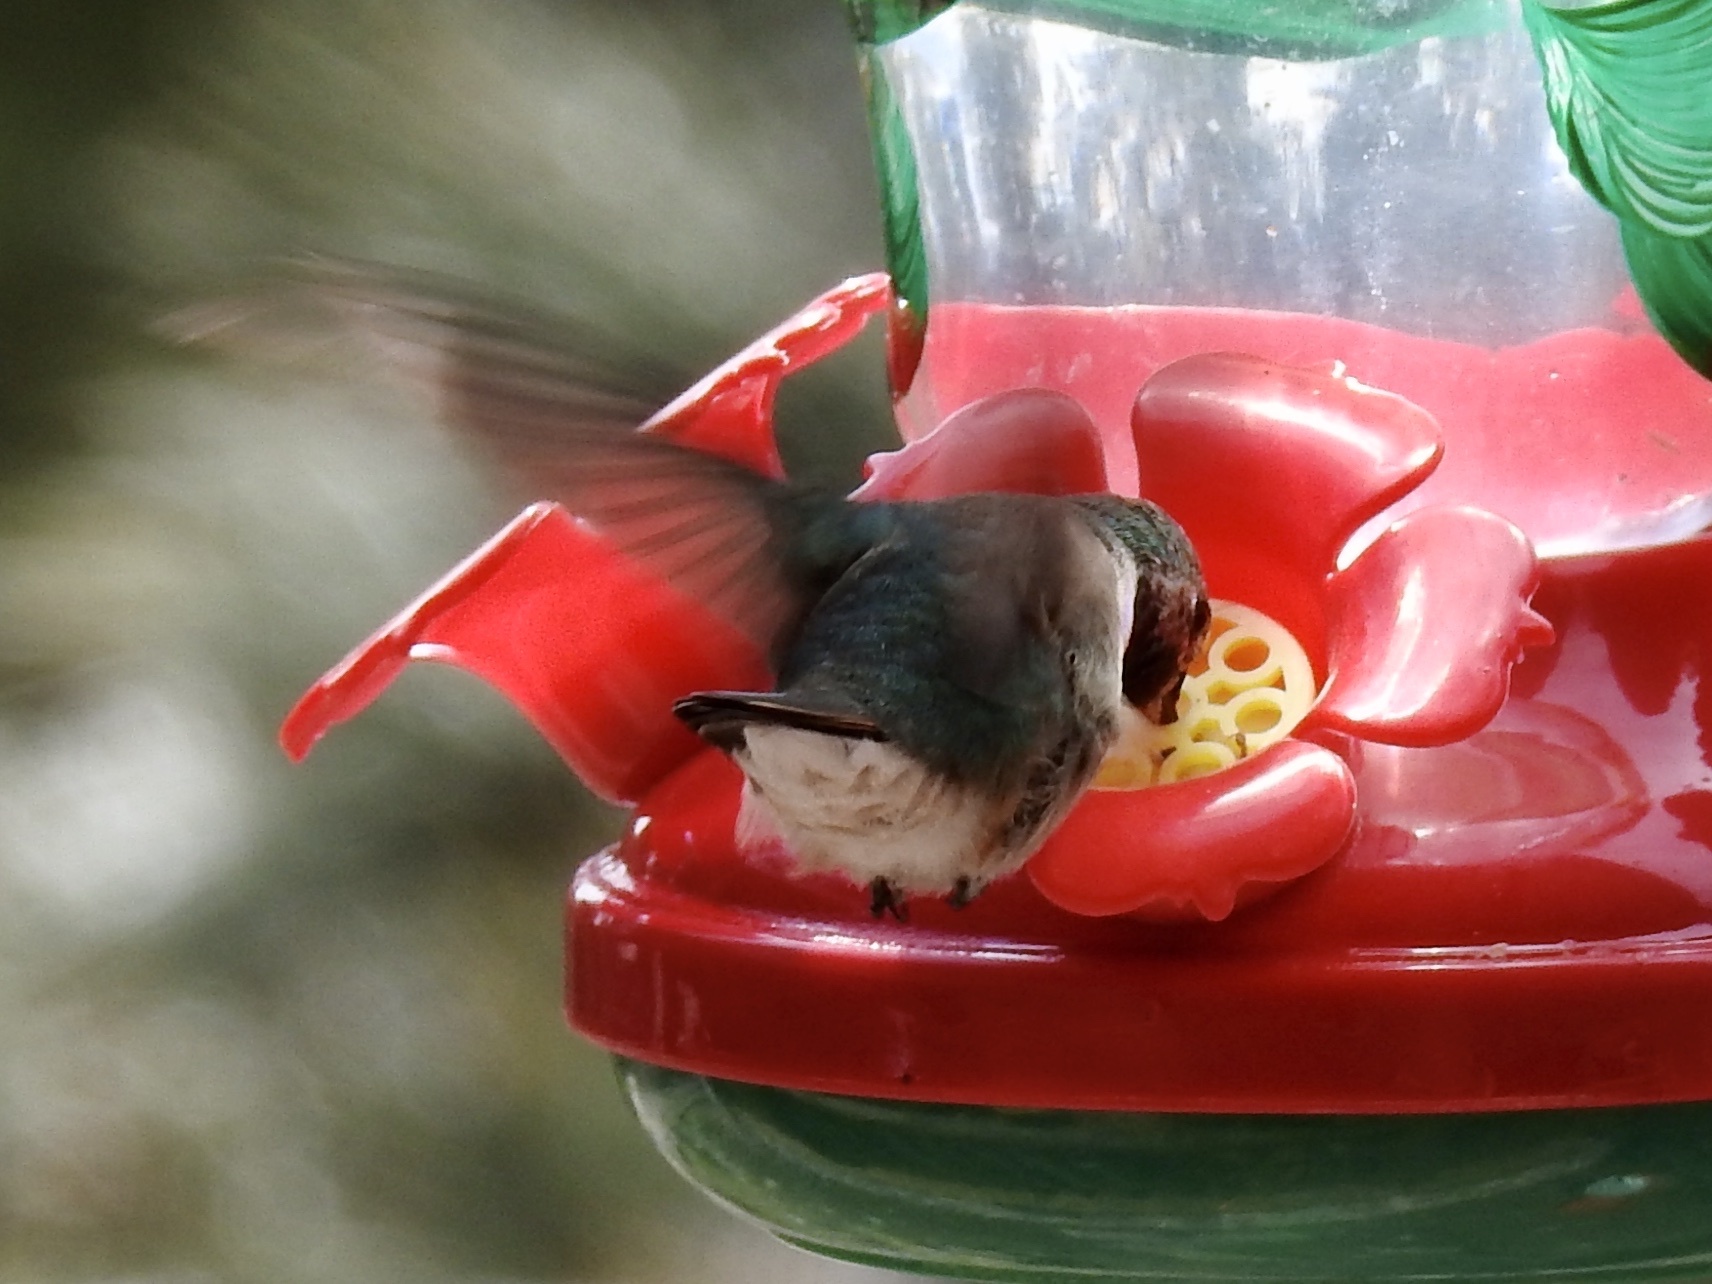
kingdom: Animalia
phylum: Chordata
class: Aves
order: Apodiformes
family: Trochilidae
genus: Selasphorus
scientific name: Selasphorus platycercus
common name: Broad-tailed hummingbird
